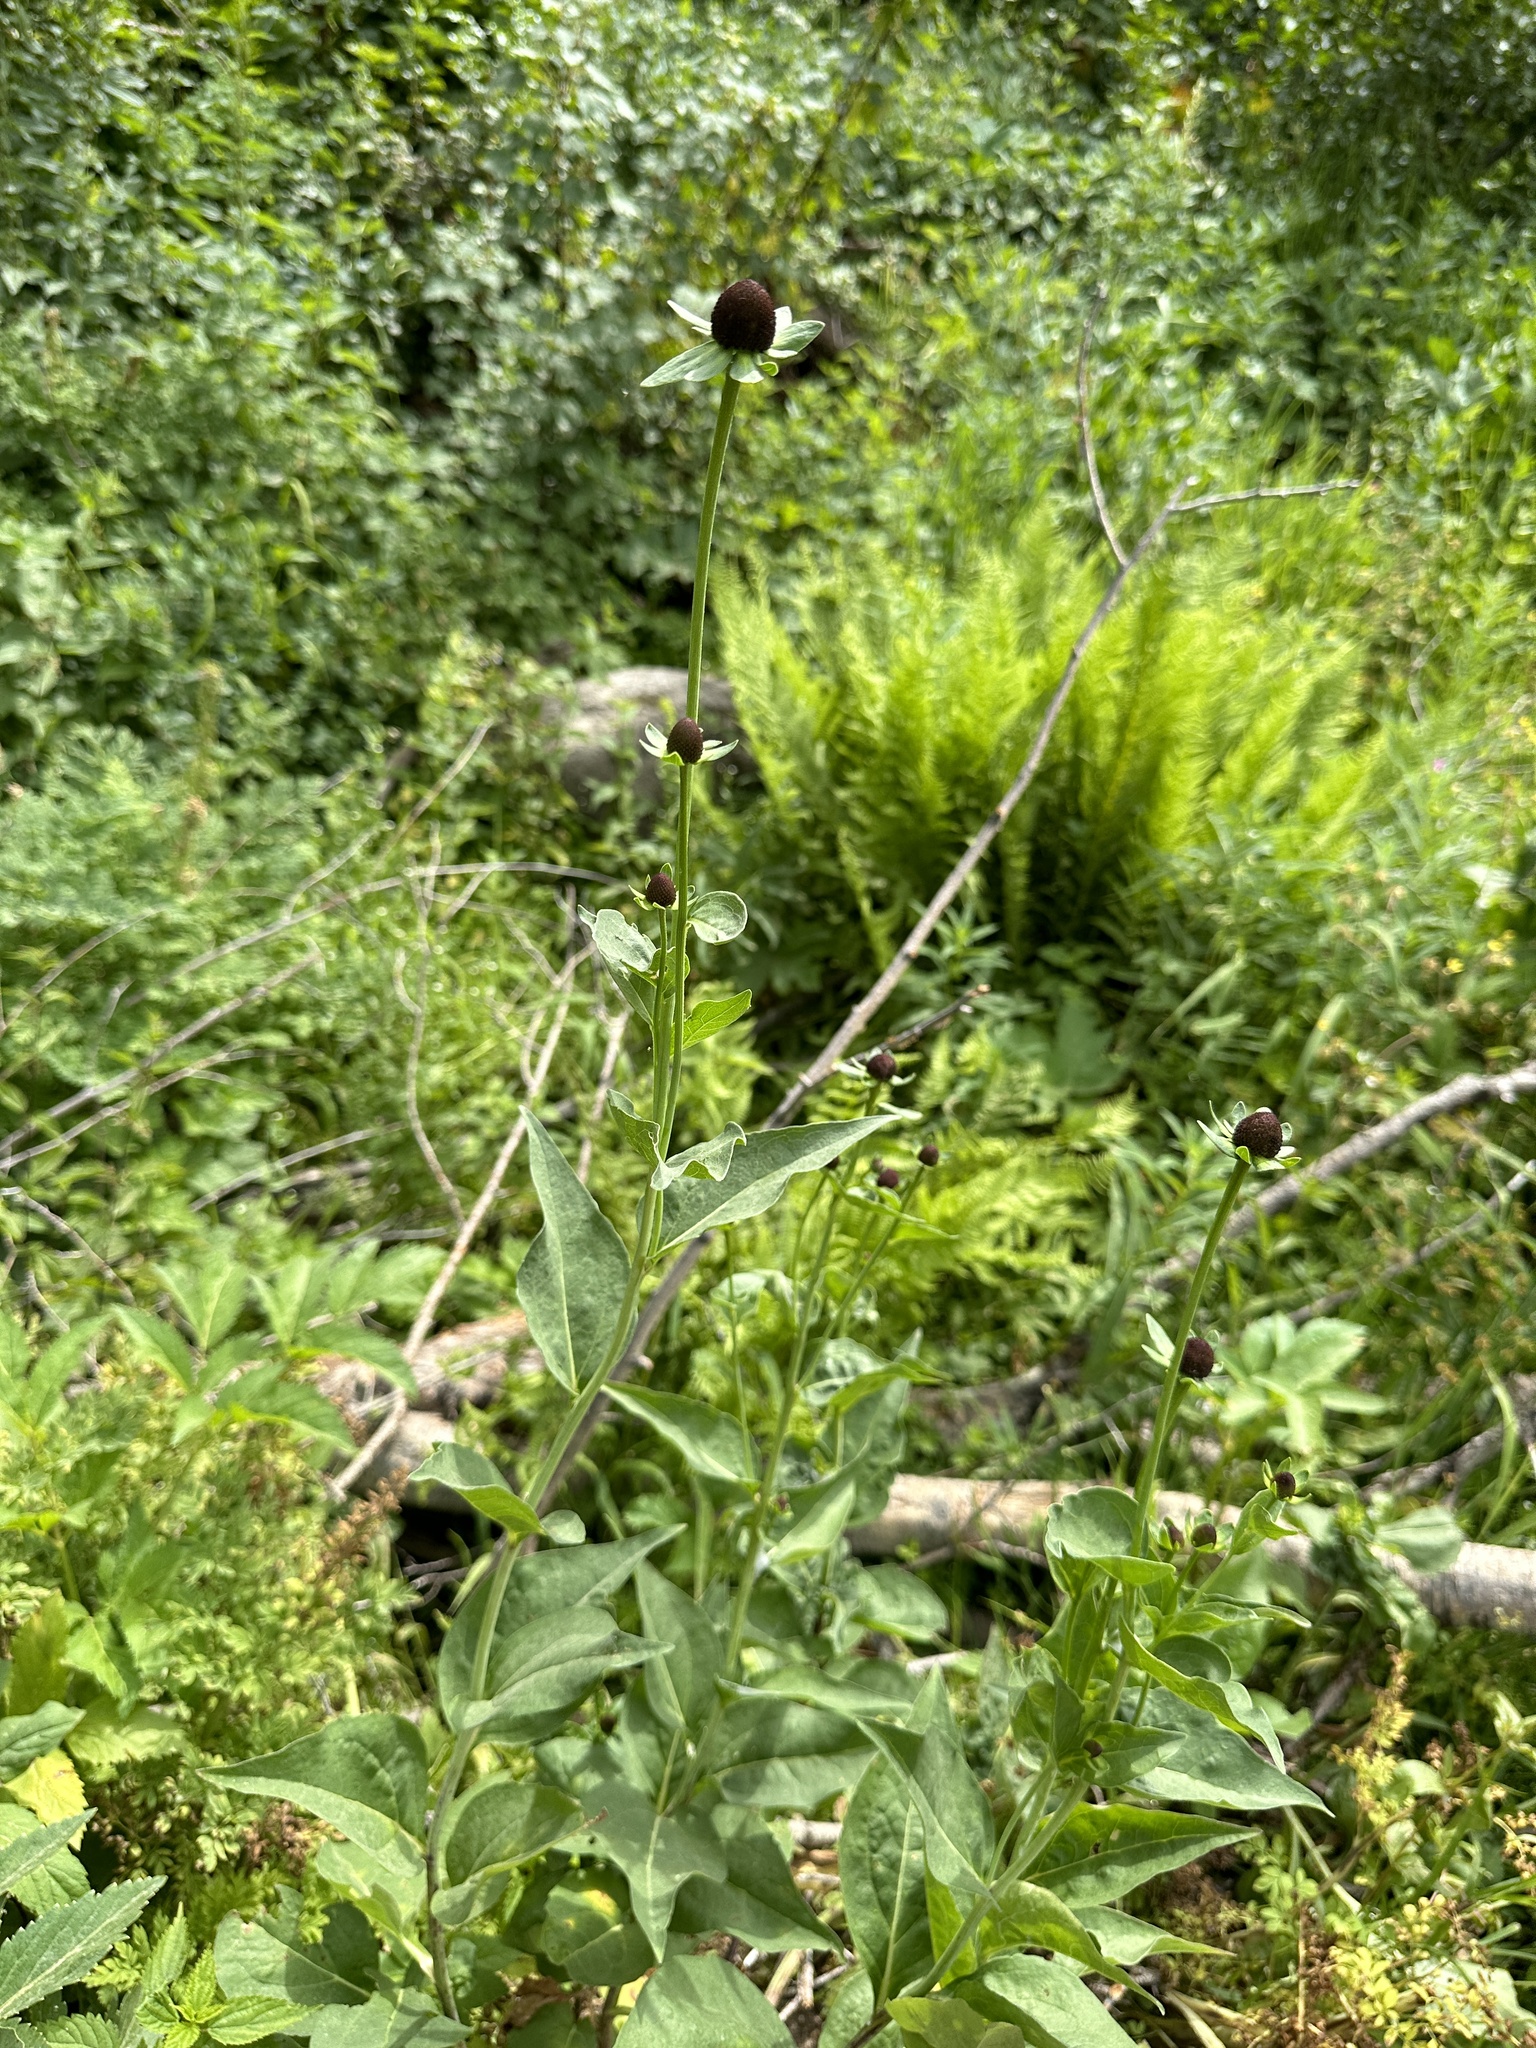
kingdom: Plantae
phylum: Tracheophyta
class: Magnoliopsida
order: Asterales
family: Asteraceae
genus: Rudbeckia
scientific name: Rudbeckia occidentalis
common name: Western coneflower
